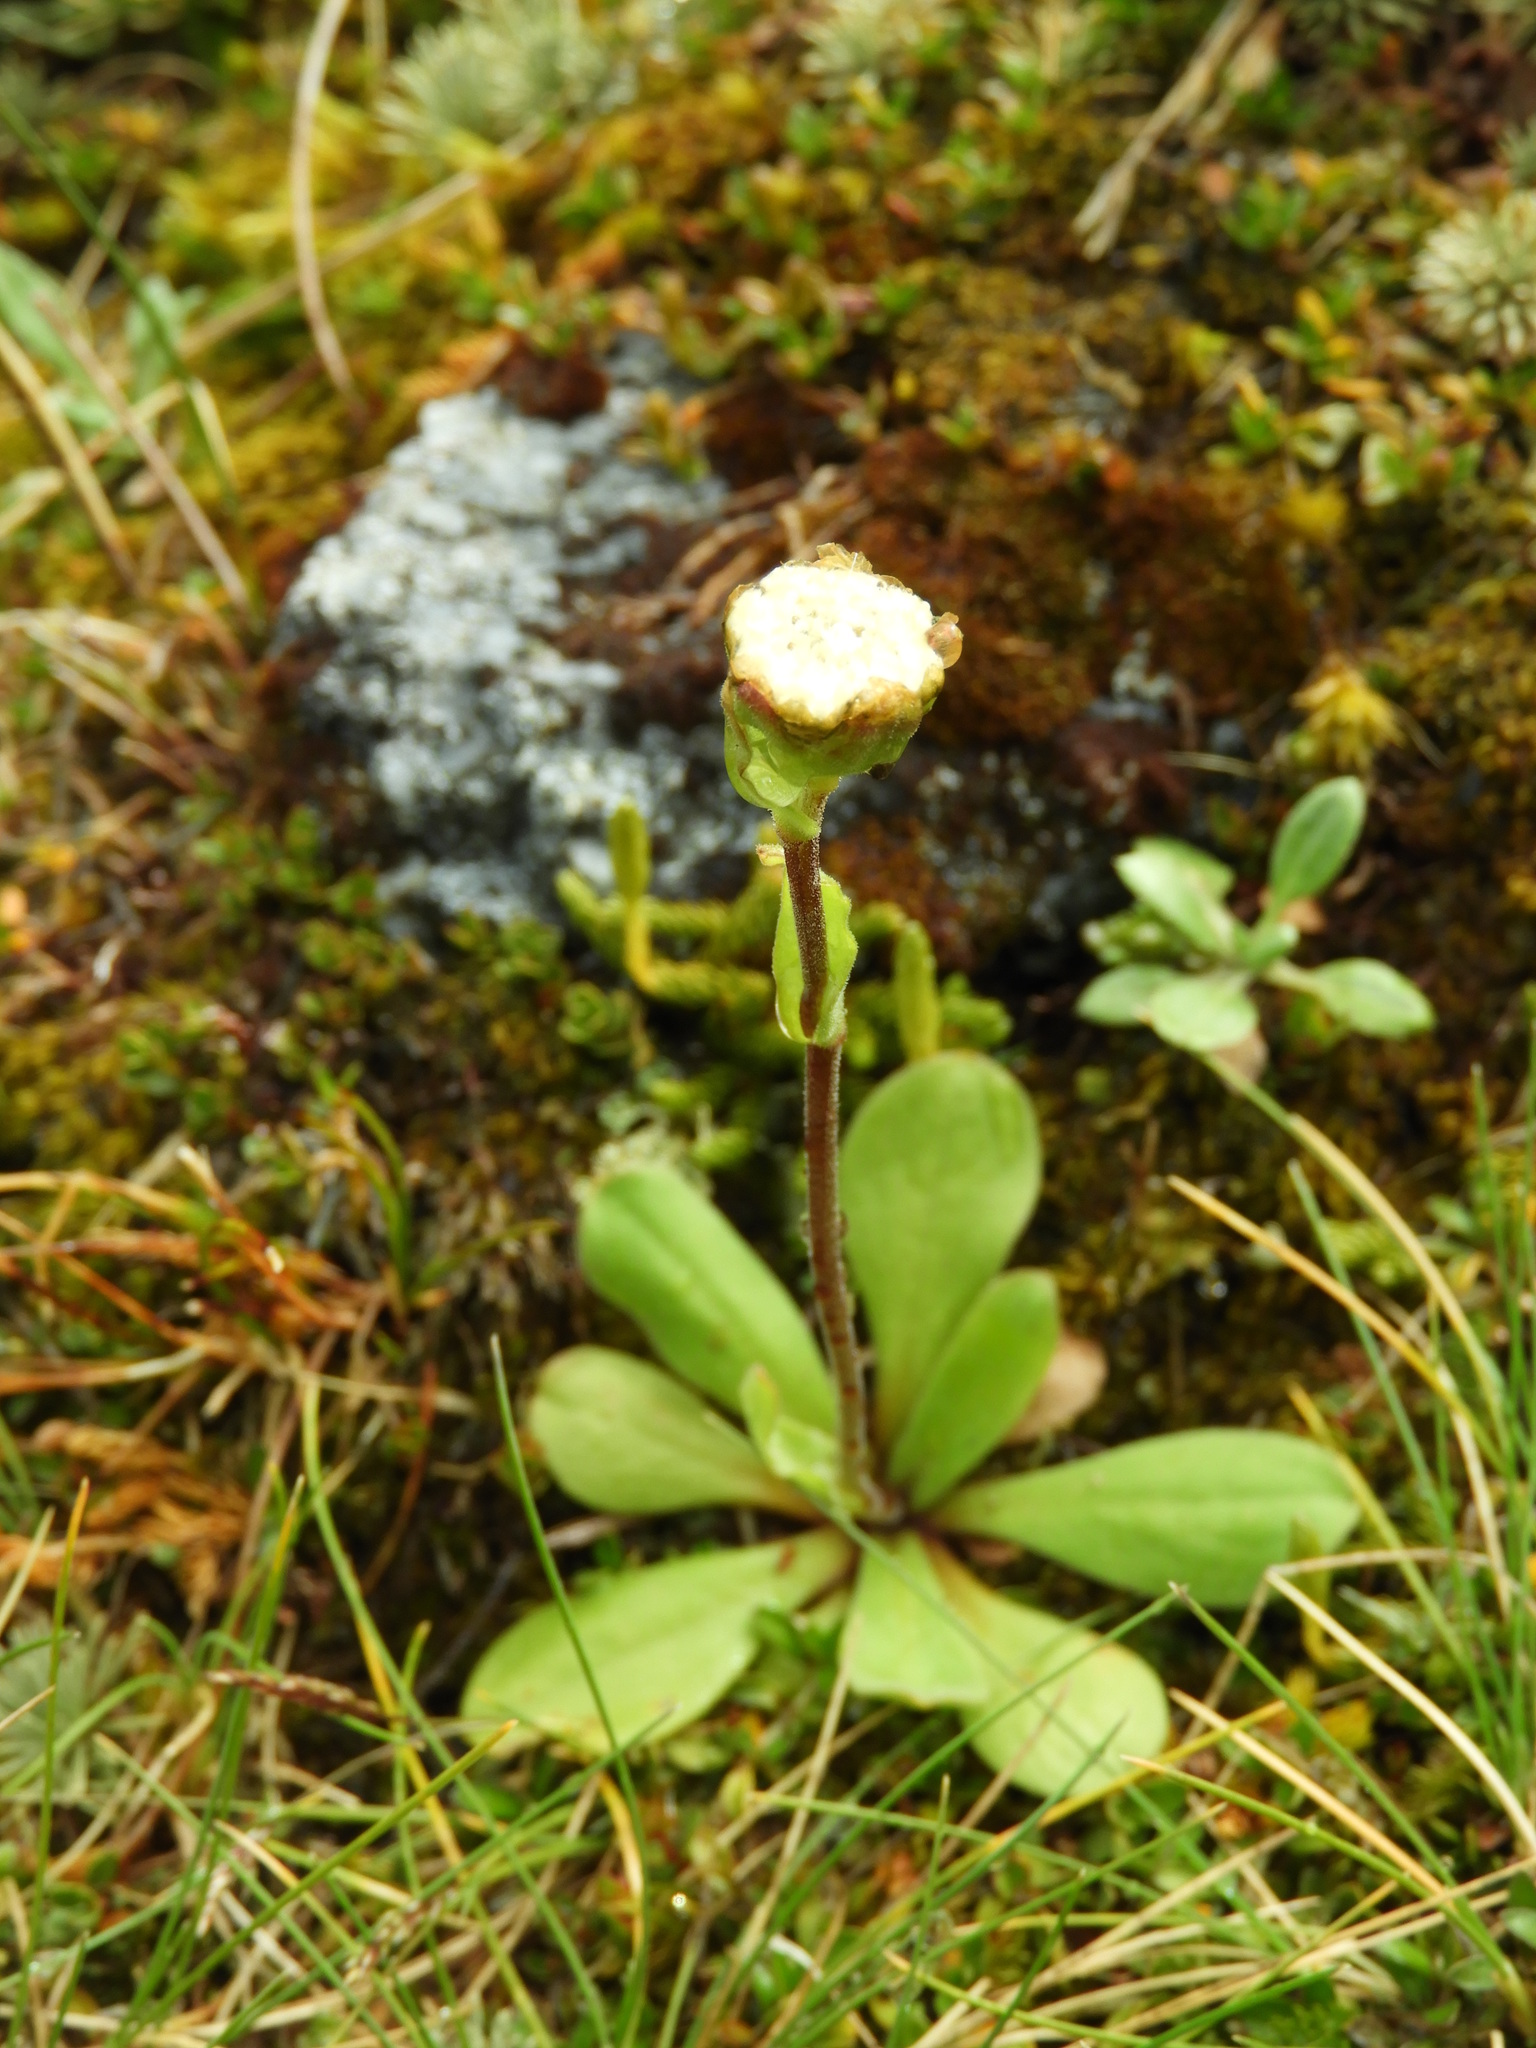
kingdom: Plantae
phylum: Tracheophyta
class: Magnoliopsida
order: Asterales
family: Asteraceae
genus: Craspedia
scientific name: Craspedia uniflora
